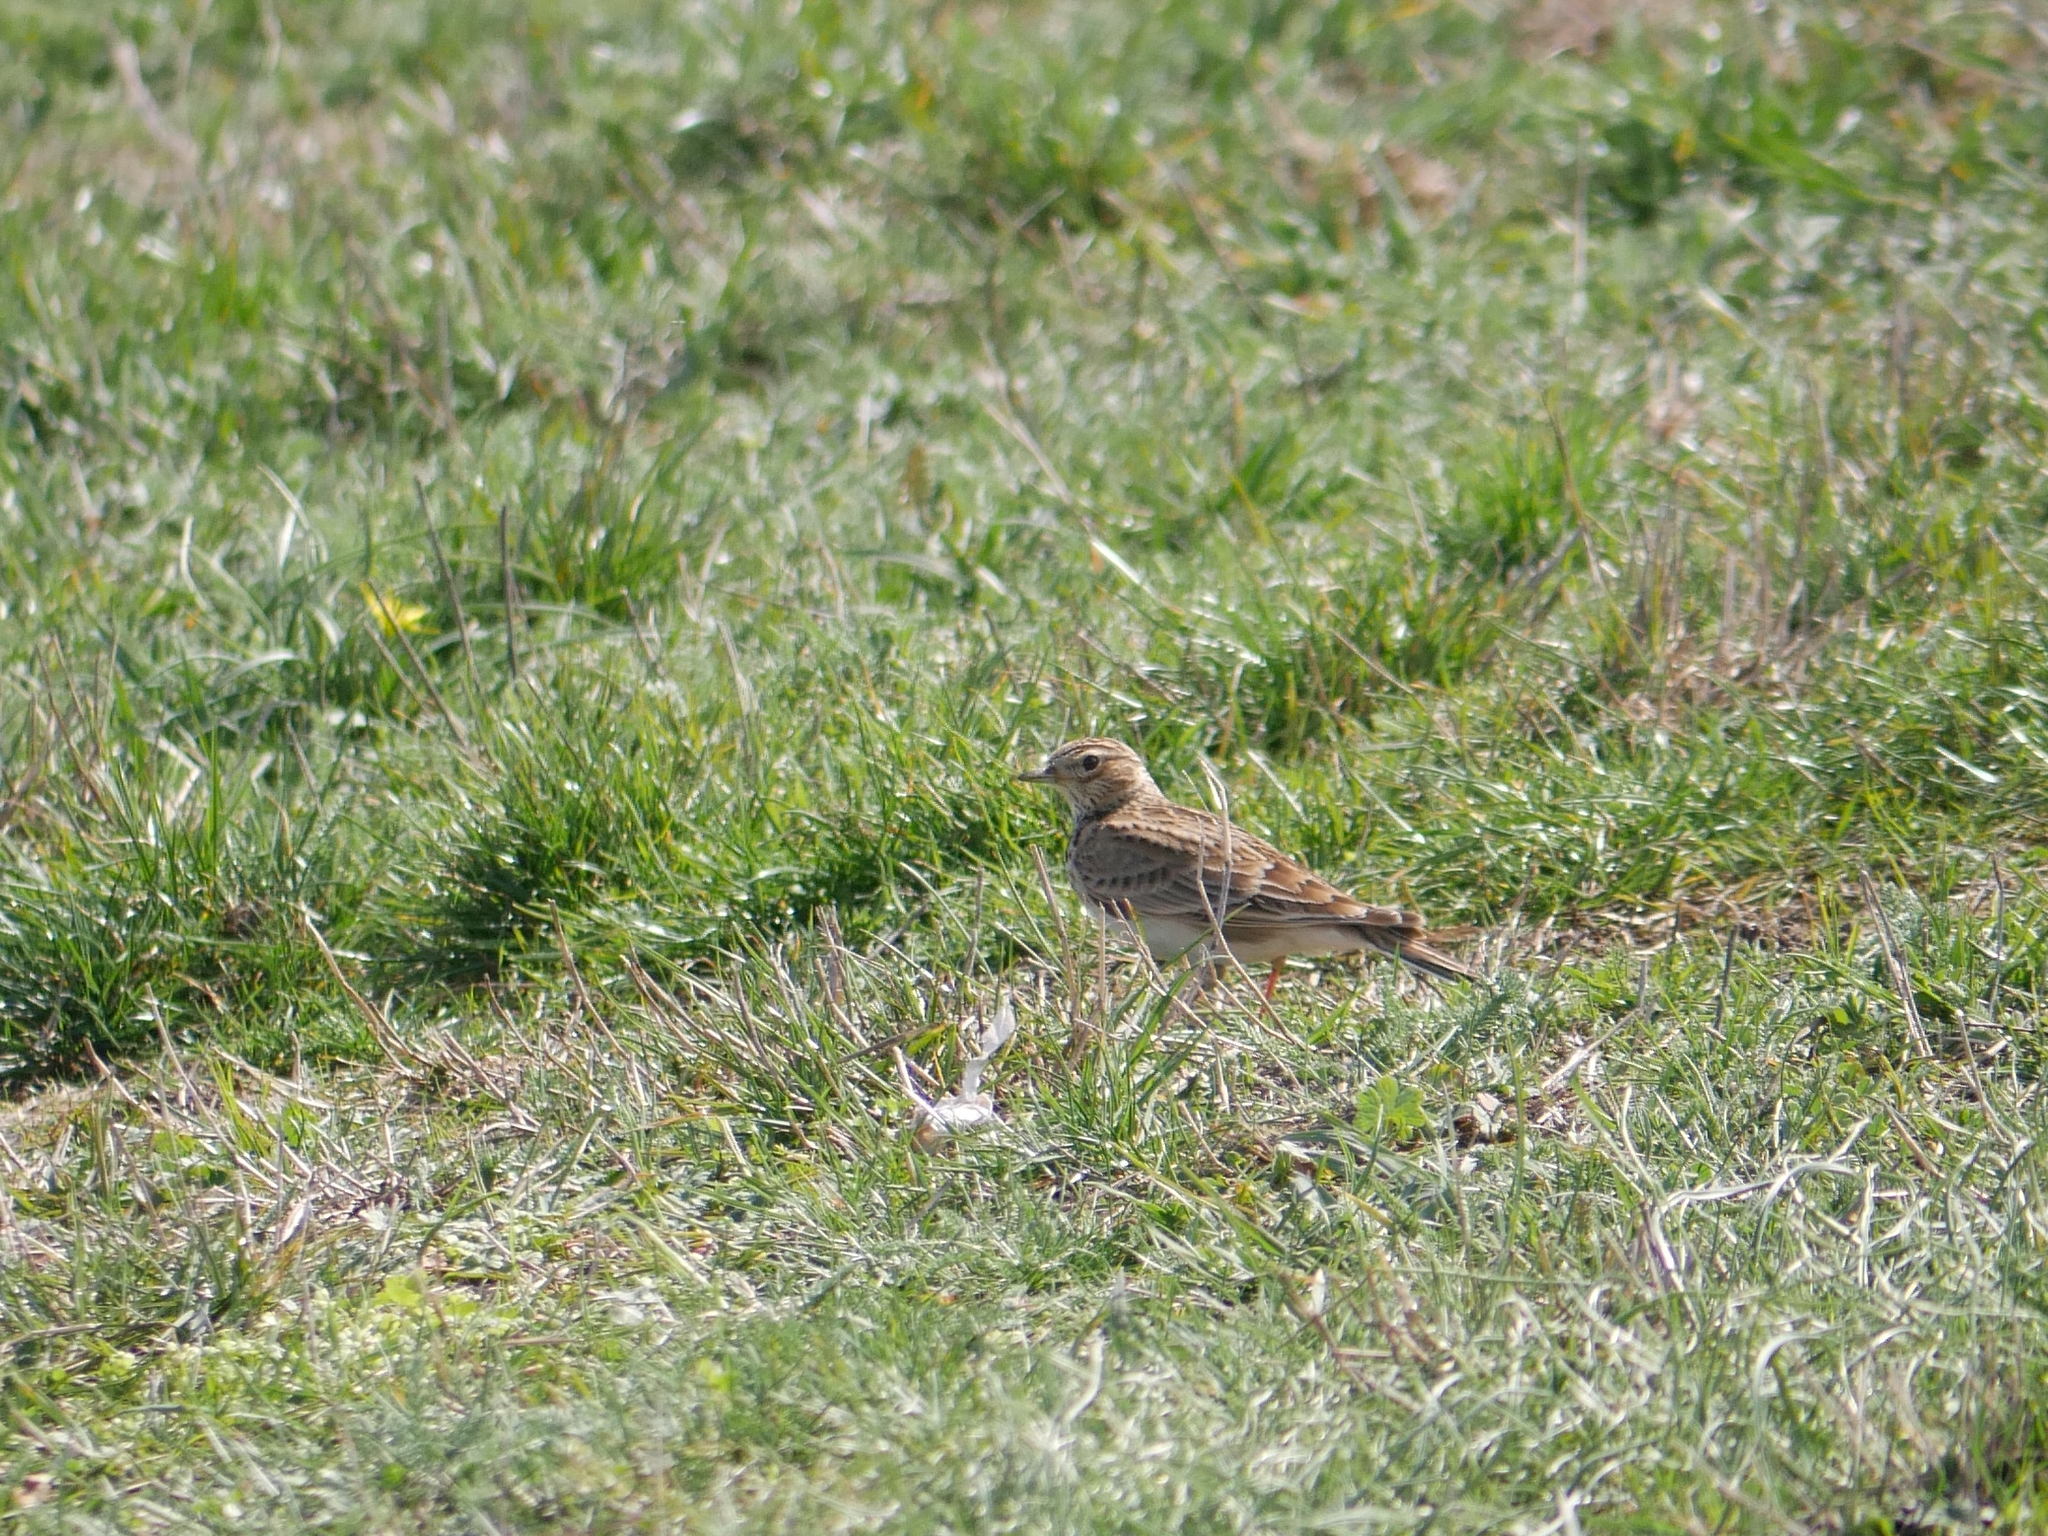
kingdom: Animalia
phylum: Chordata
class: Aves
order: Passeriformes
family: Alaudidae
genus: Alauda
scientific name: Alauda arvensis
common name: Eurasian skylark
